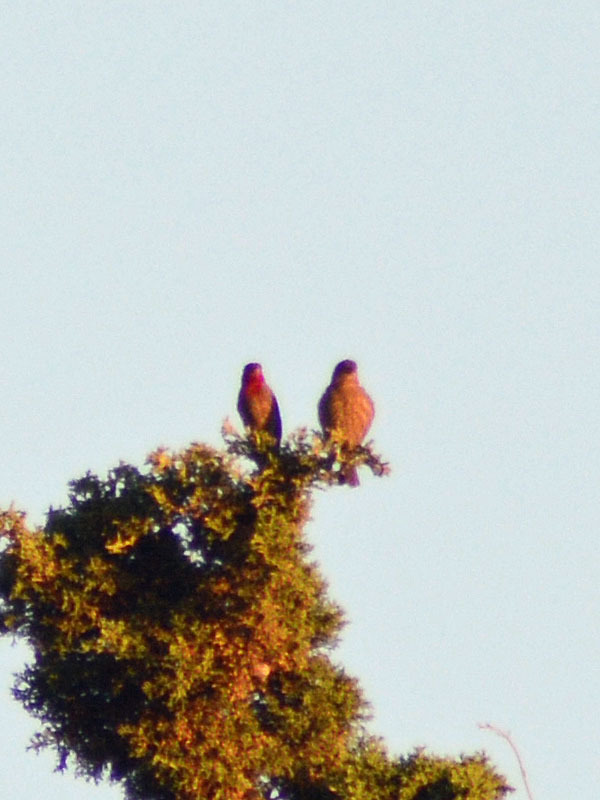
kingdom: Animalia
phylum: Chordata
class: Aves
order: Passeriformes
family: Fringillidae
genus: Haemorhous
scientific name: Haemorhous mexicanus
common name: House finch
